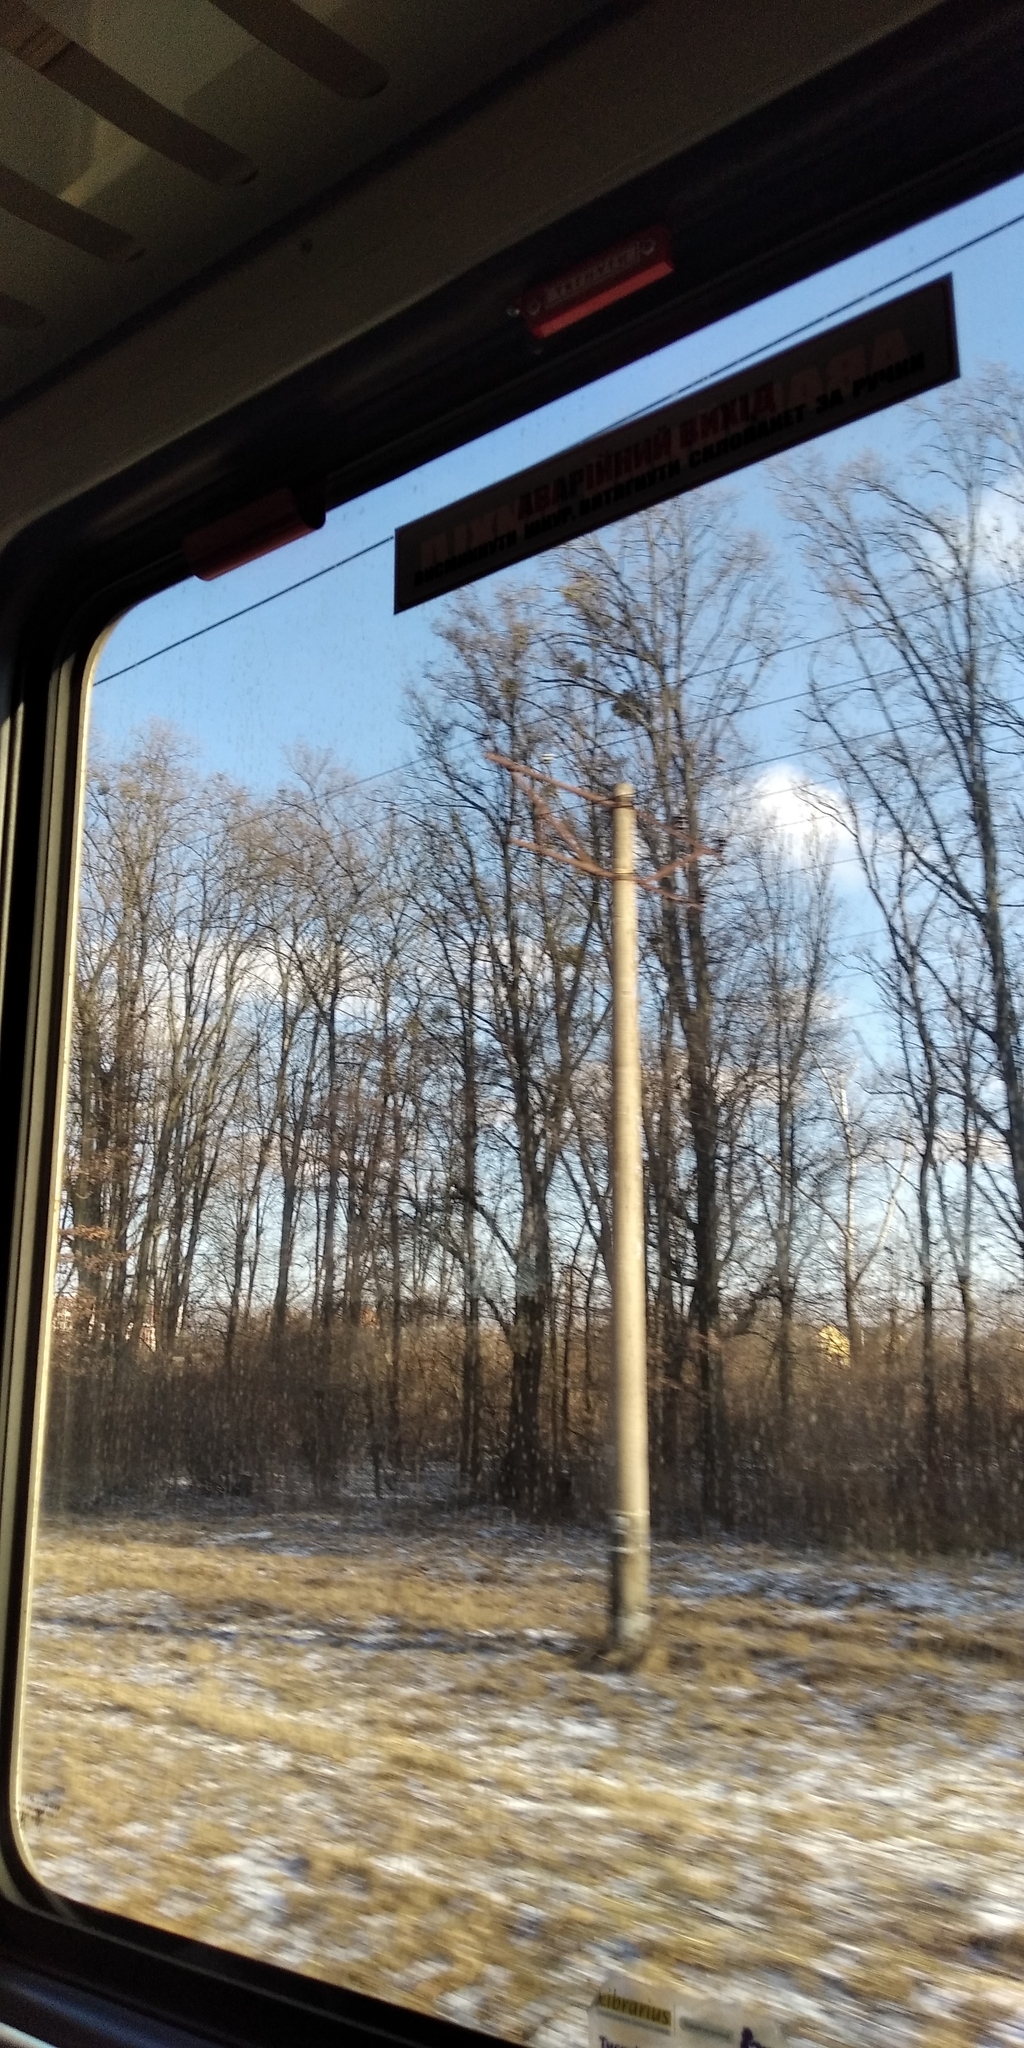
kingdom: Plantae
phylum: Tracheophyta
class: Magnoliopsida
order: Santalales
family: Viscaceae
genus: Viscum
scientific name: Viscum album
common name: Mistletoe
